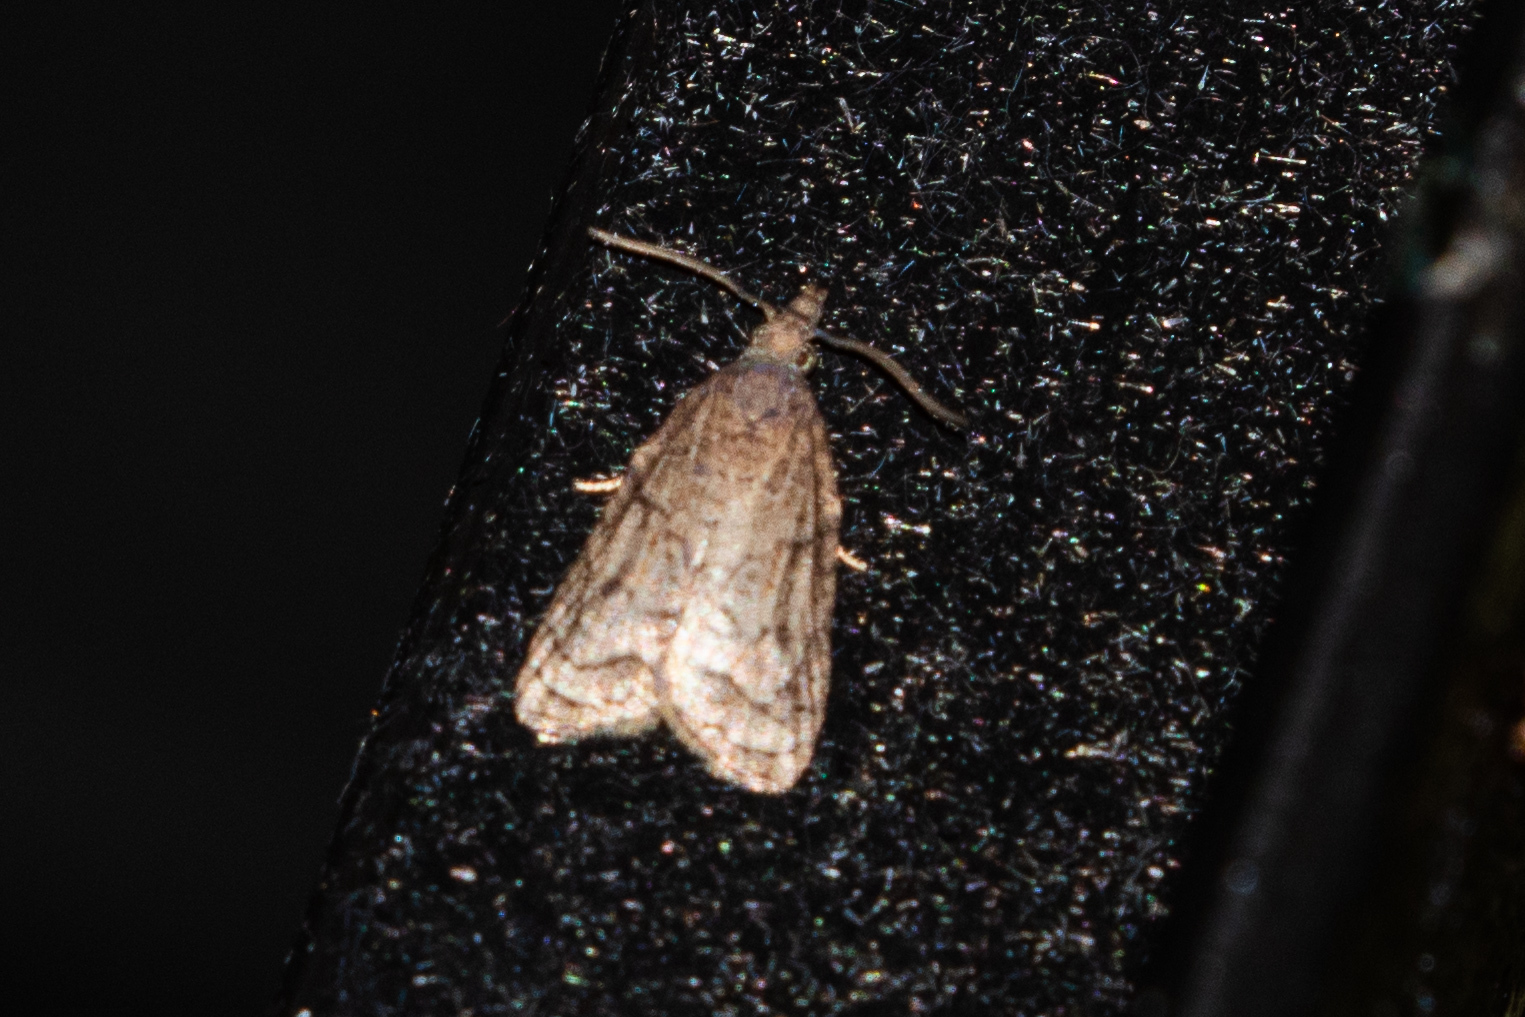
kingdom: Animalia
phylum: Arthropoda
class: Insecta
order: Lepidoptera
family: Tortricidae
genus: Platynota
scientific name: Platynota idaeusalis
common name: Tufted apple bud moth
